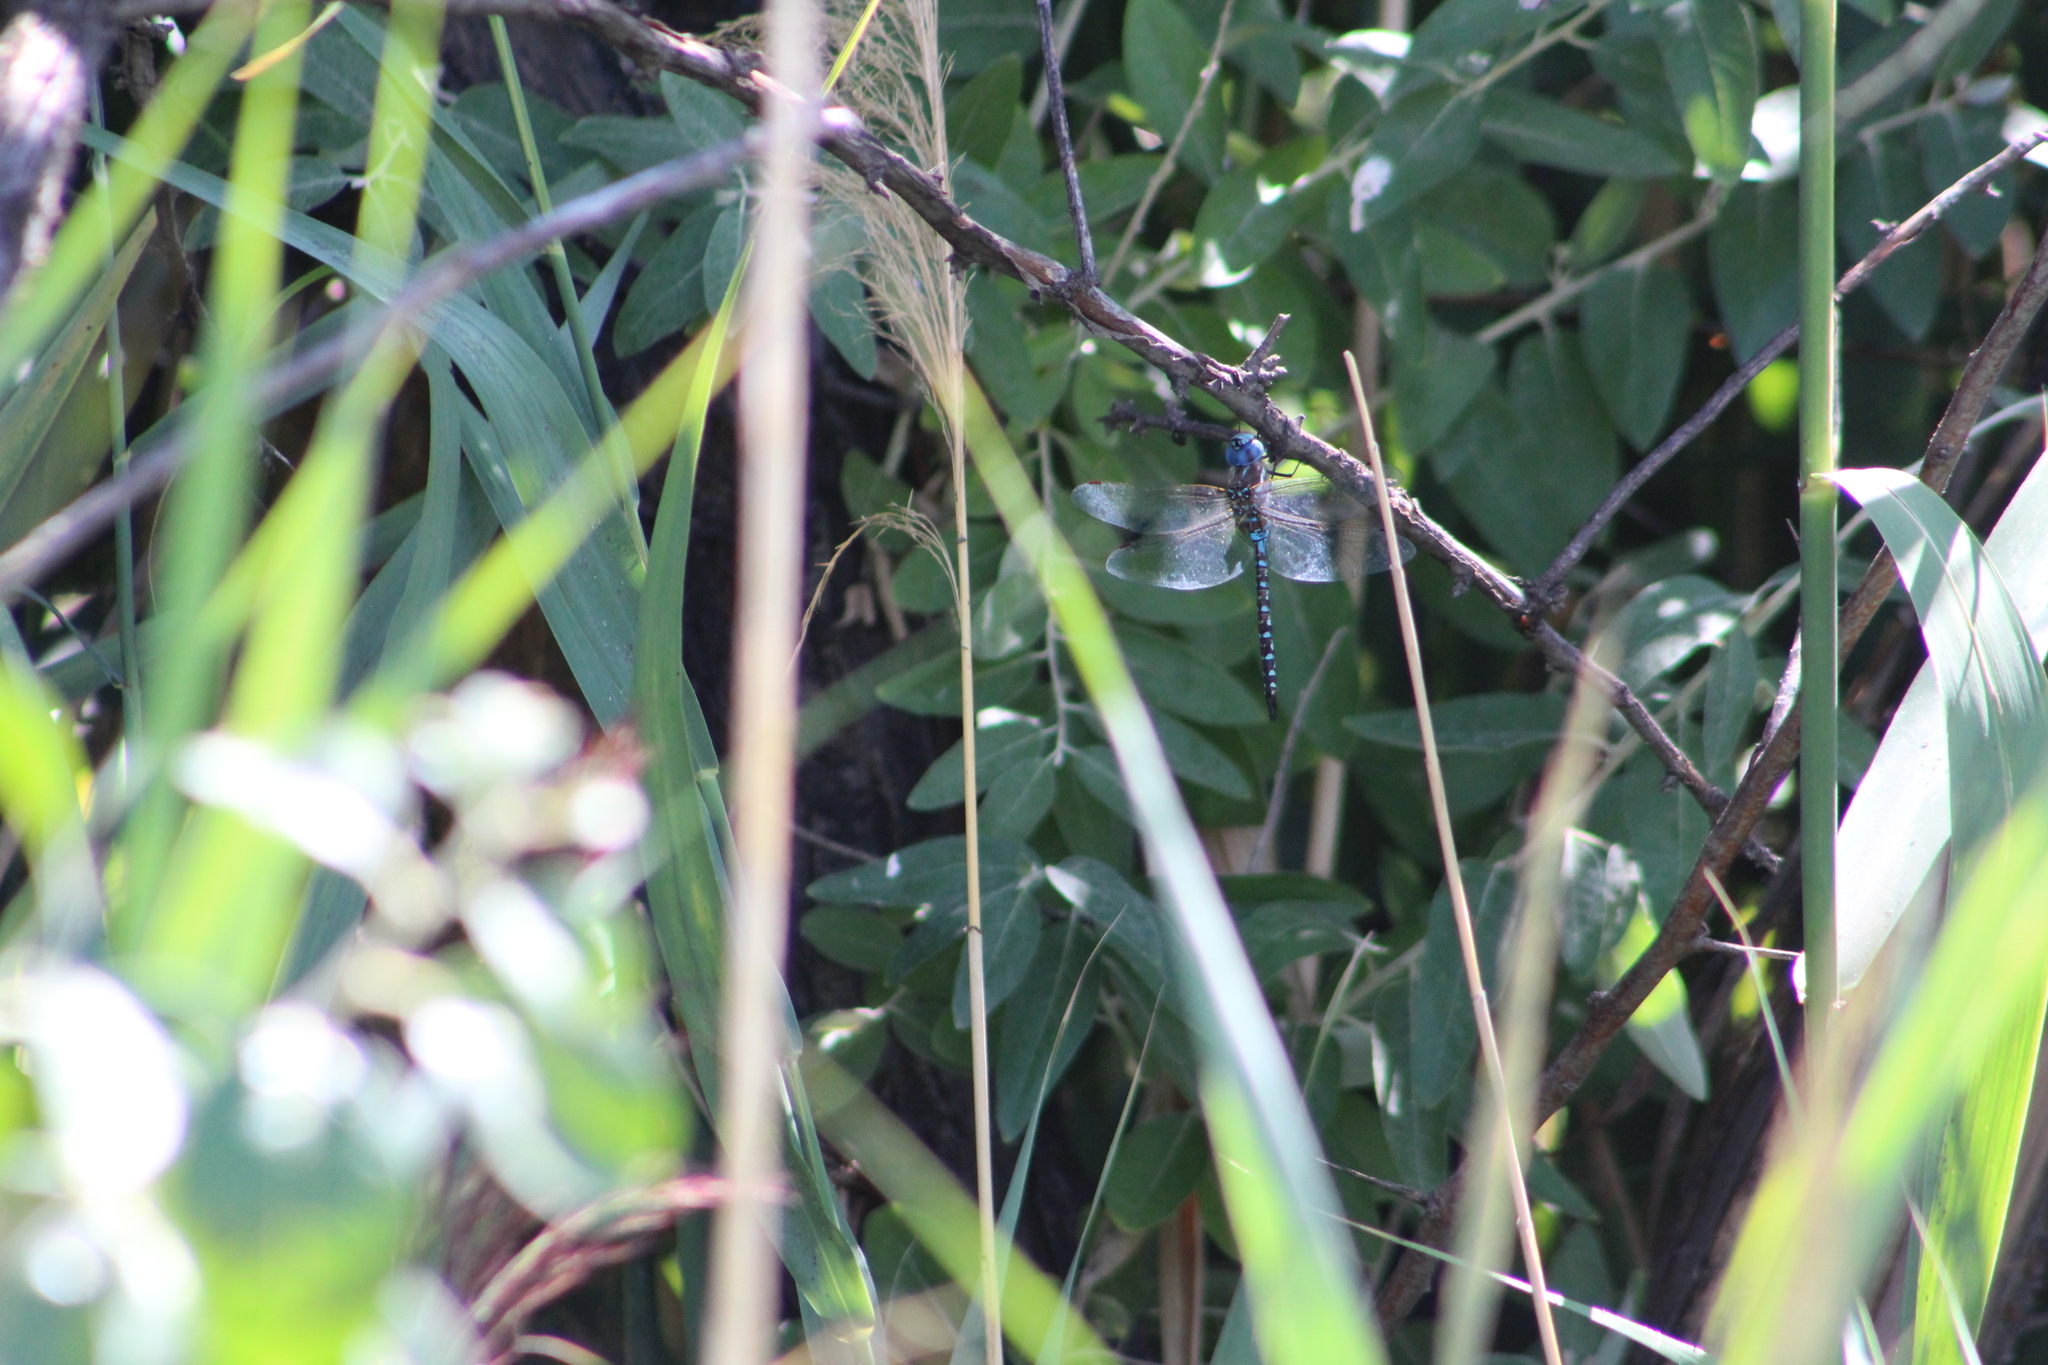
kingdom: Animalia
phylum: Arthropoda
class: Insecta
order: Odonata
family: Aeshnidae
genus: Rhionaeschna
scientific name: Rhionaeschna multicolor
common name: Blue-eyed darner
